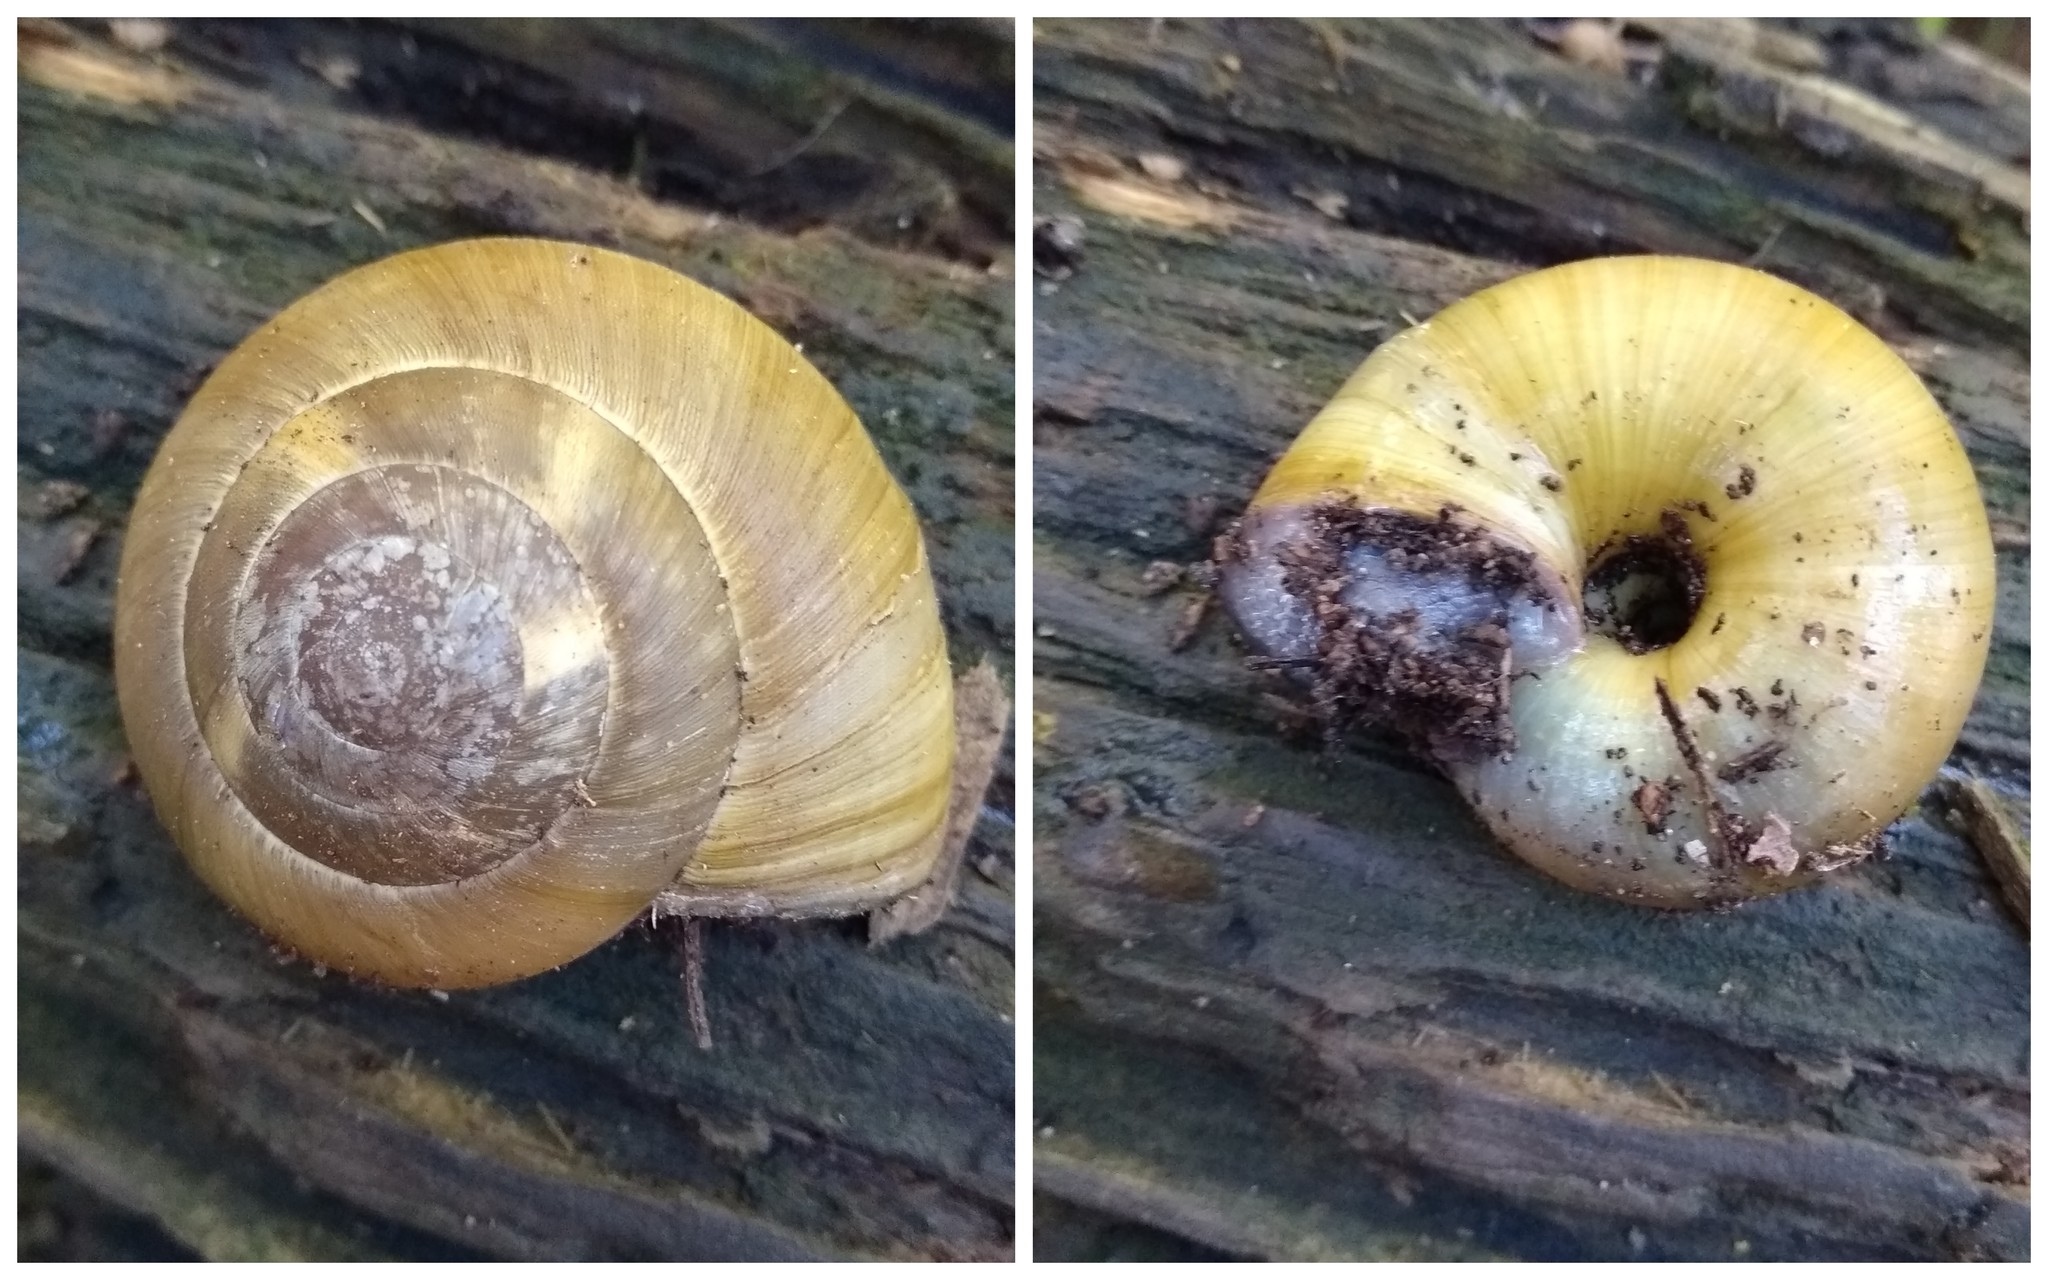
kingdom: Animalia
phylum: Mollusca
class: Gastropoda
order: Stylommatophora
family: Zonitidae
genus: Zonites
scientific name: Zonites algirus
